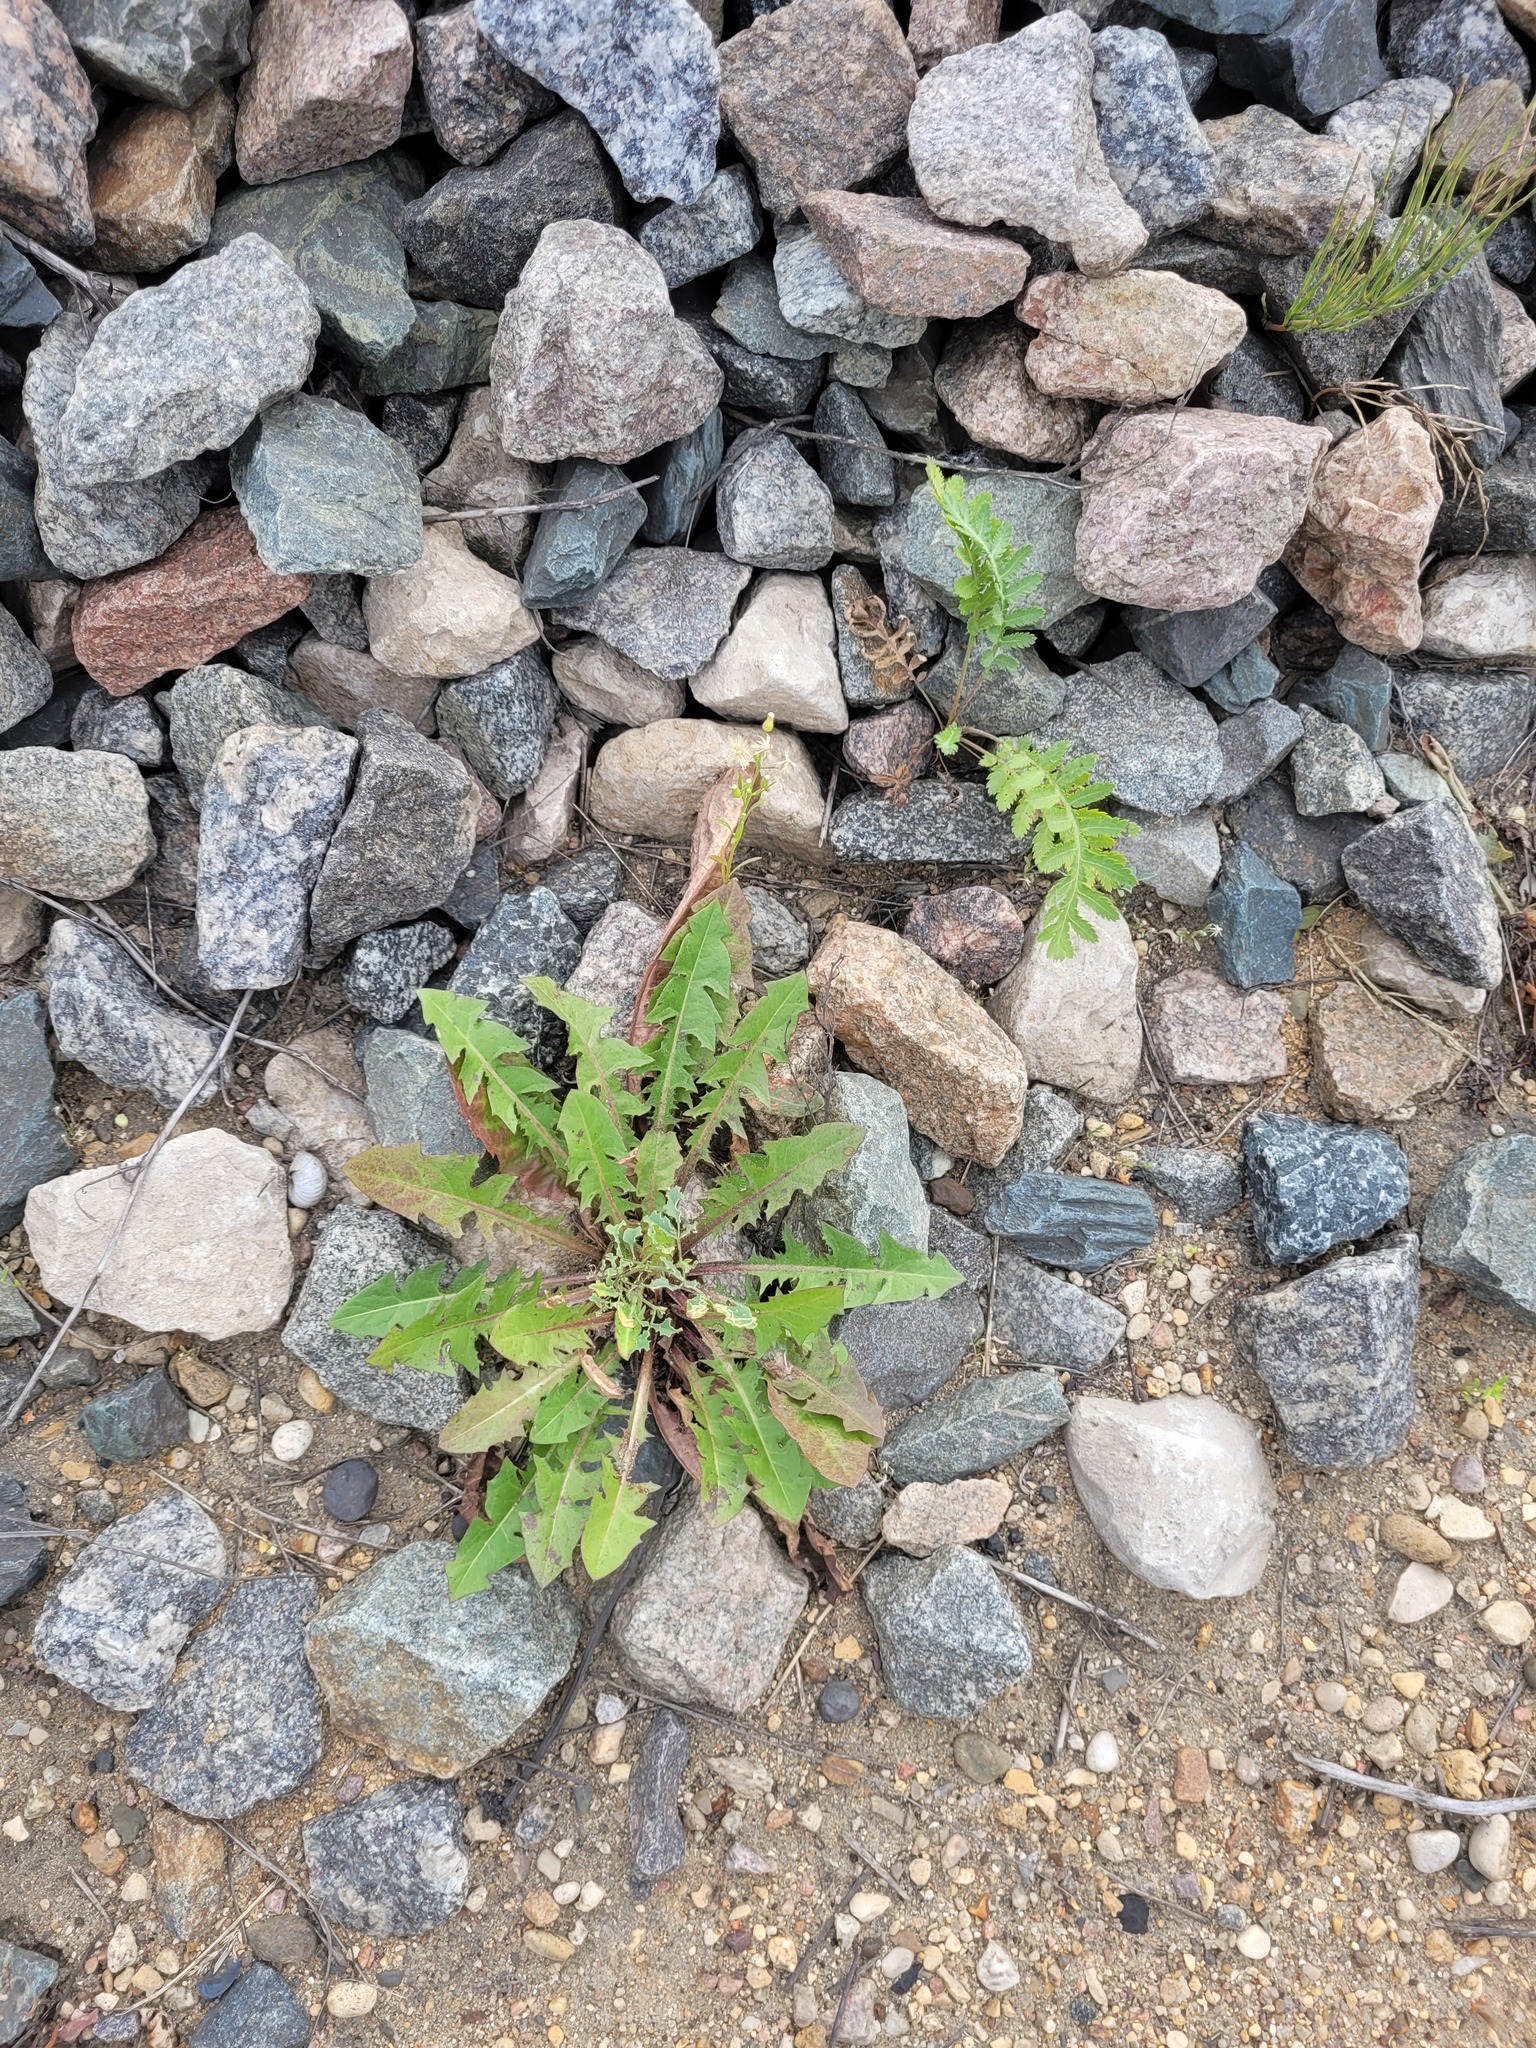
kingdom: Plantae
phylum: Tracheophyta
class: Magnoliopsida
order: Asterales
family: Asteraceae
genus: Taraxacum
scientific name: Taraxacum officinale
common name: Common dandelion
